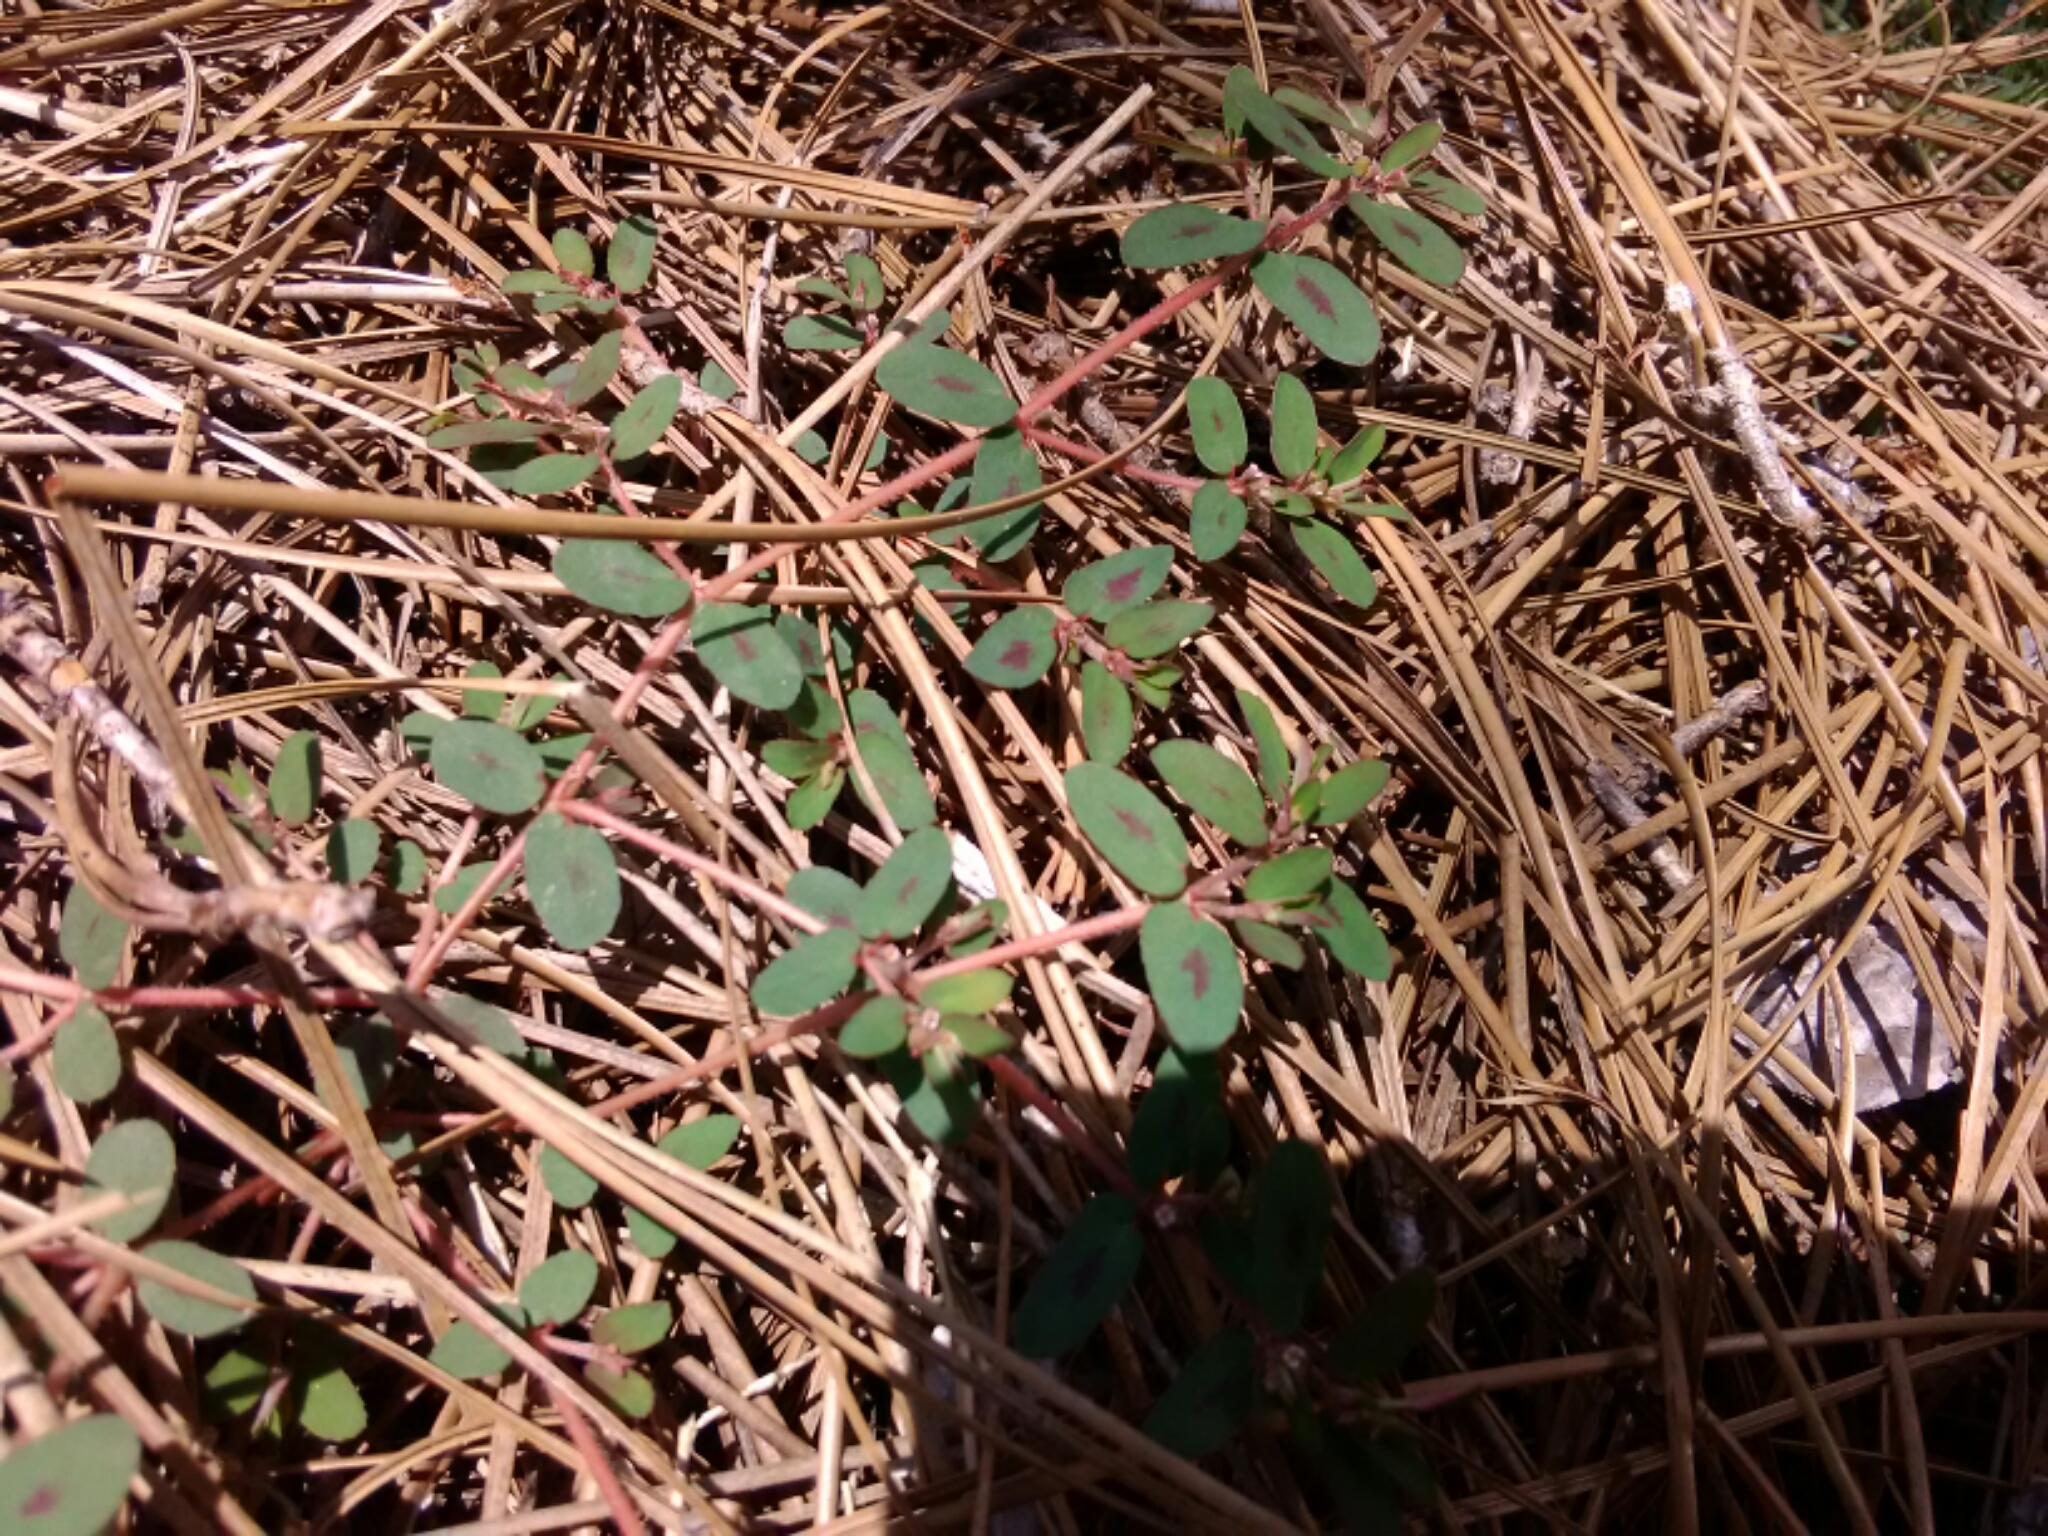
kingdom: Plantae
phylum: Tracheophyta
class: Magnoliopsida
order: Malpighiales
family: Euphorbiaceae
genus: Euphorbia
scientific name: Euphorbia maculata
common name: Spotted spurge
